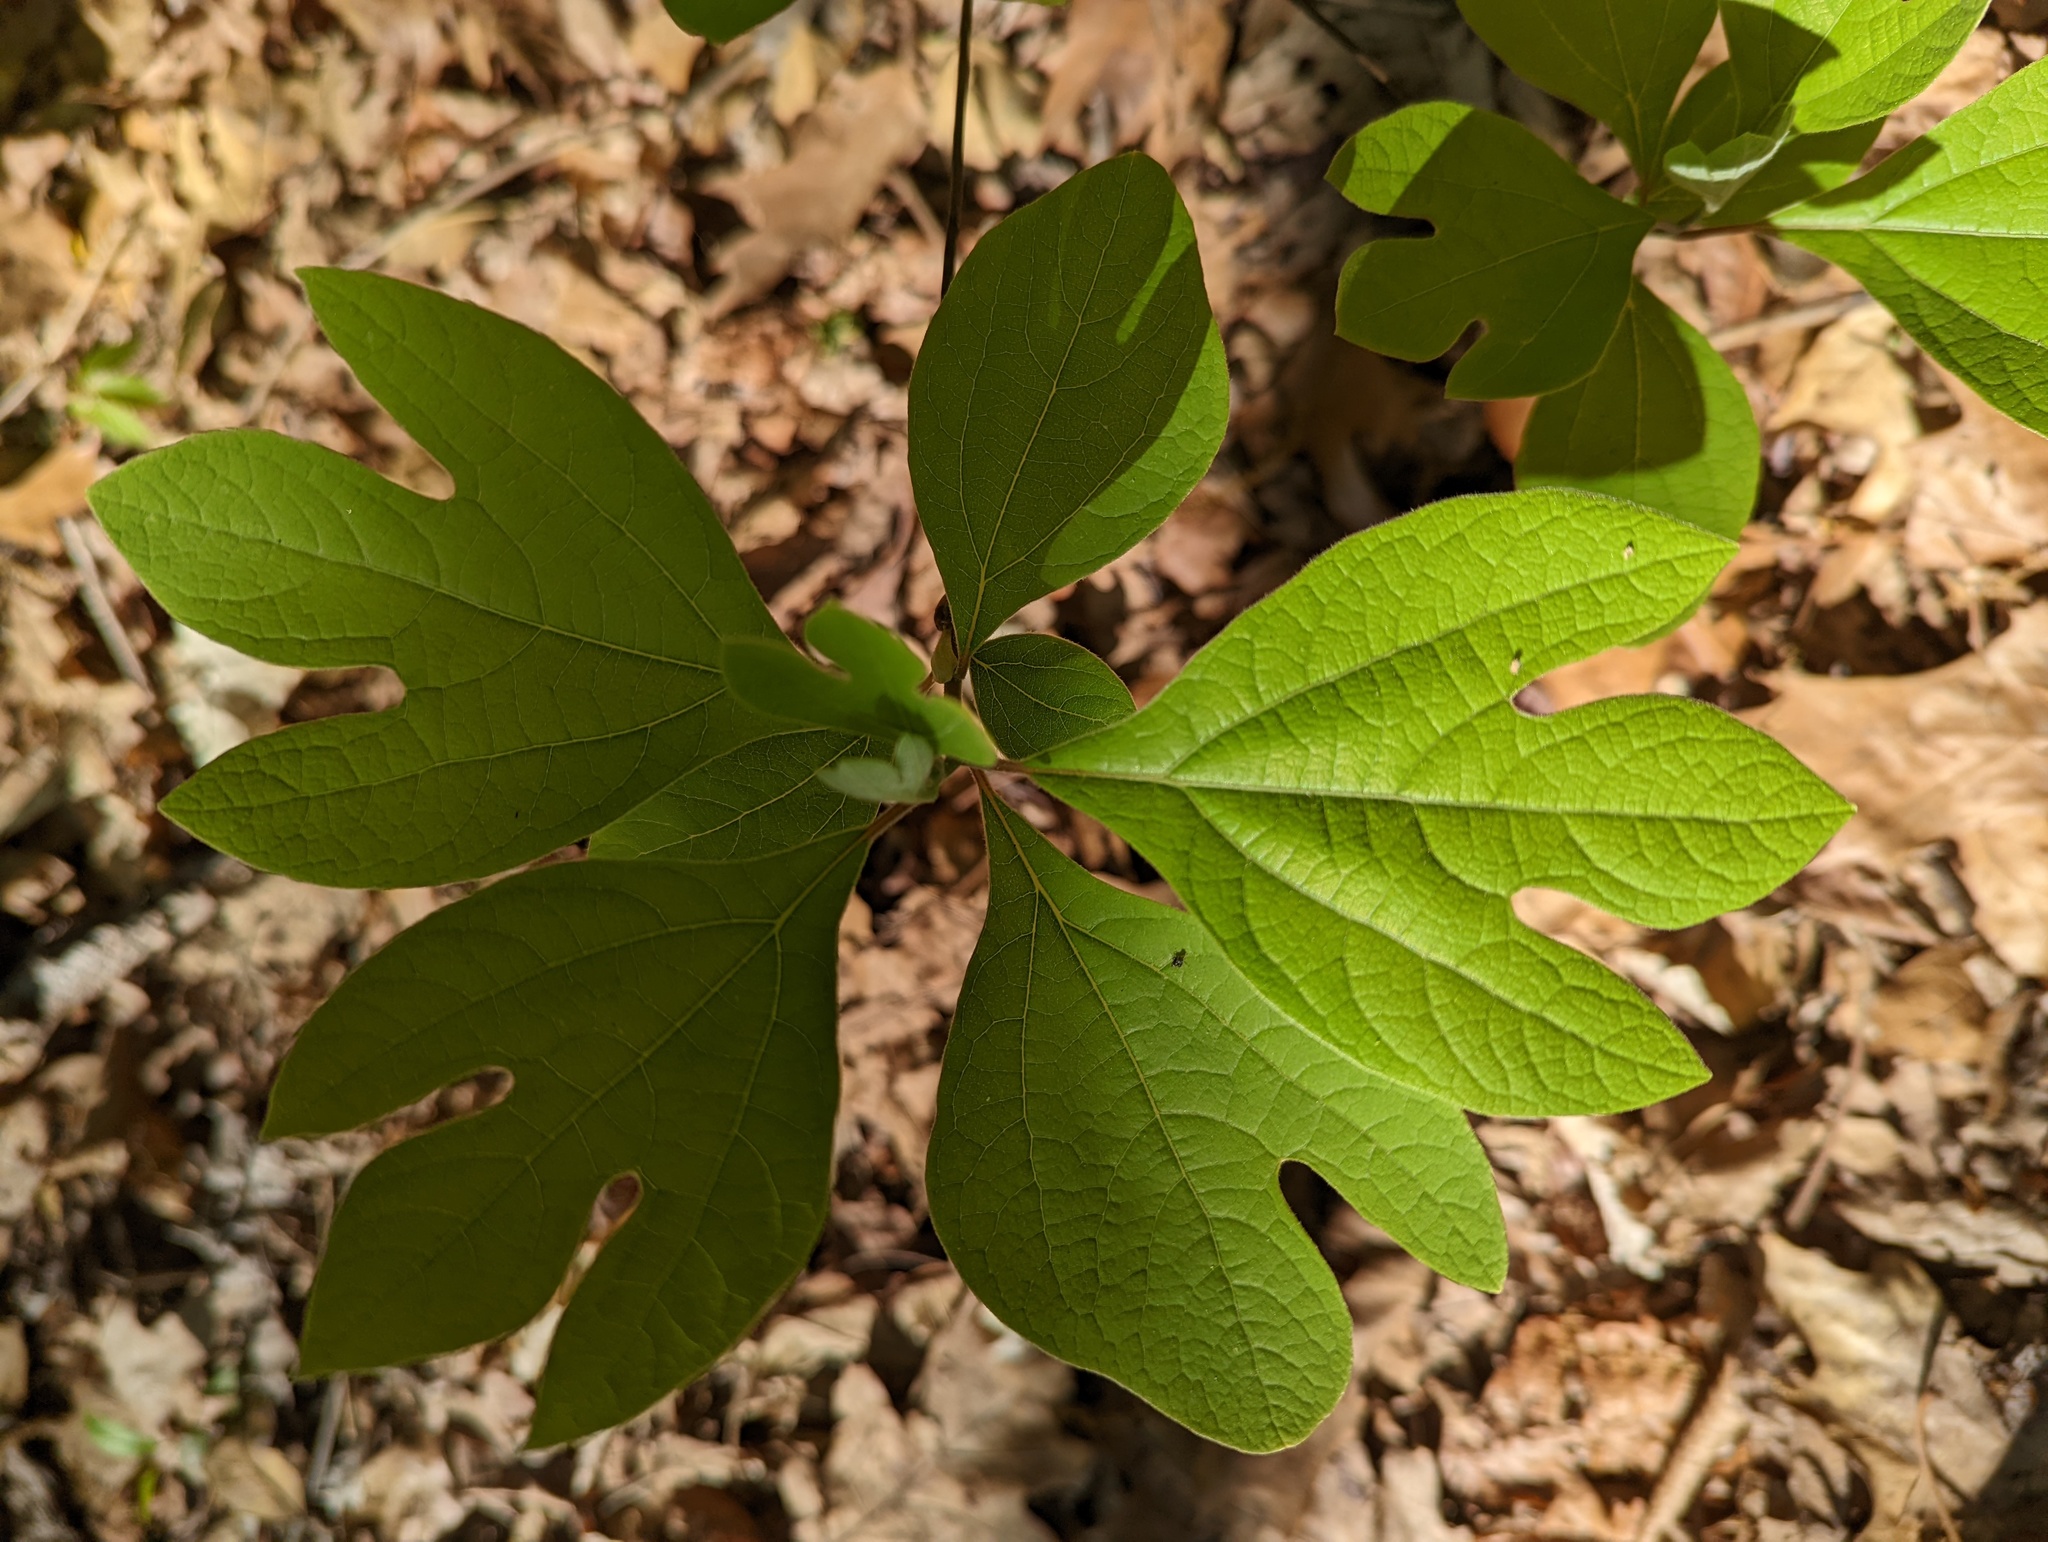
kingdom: Plantae
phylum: Tracheophyta
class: Magnoliopsida
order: Laurales
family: Lauraceae
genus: Sassafras
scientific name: Sassafras albidum
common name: Sassafras
